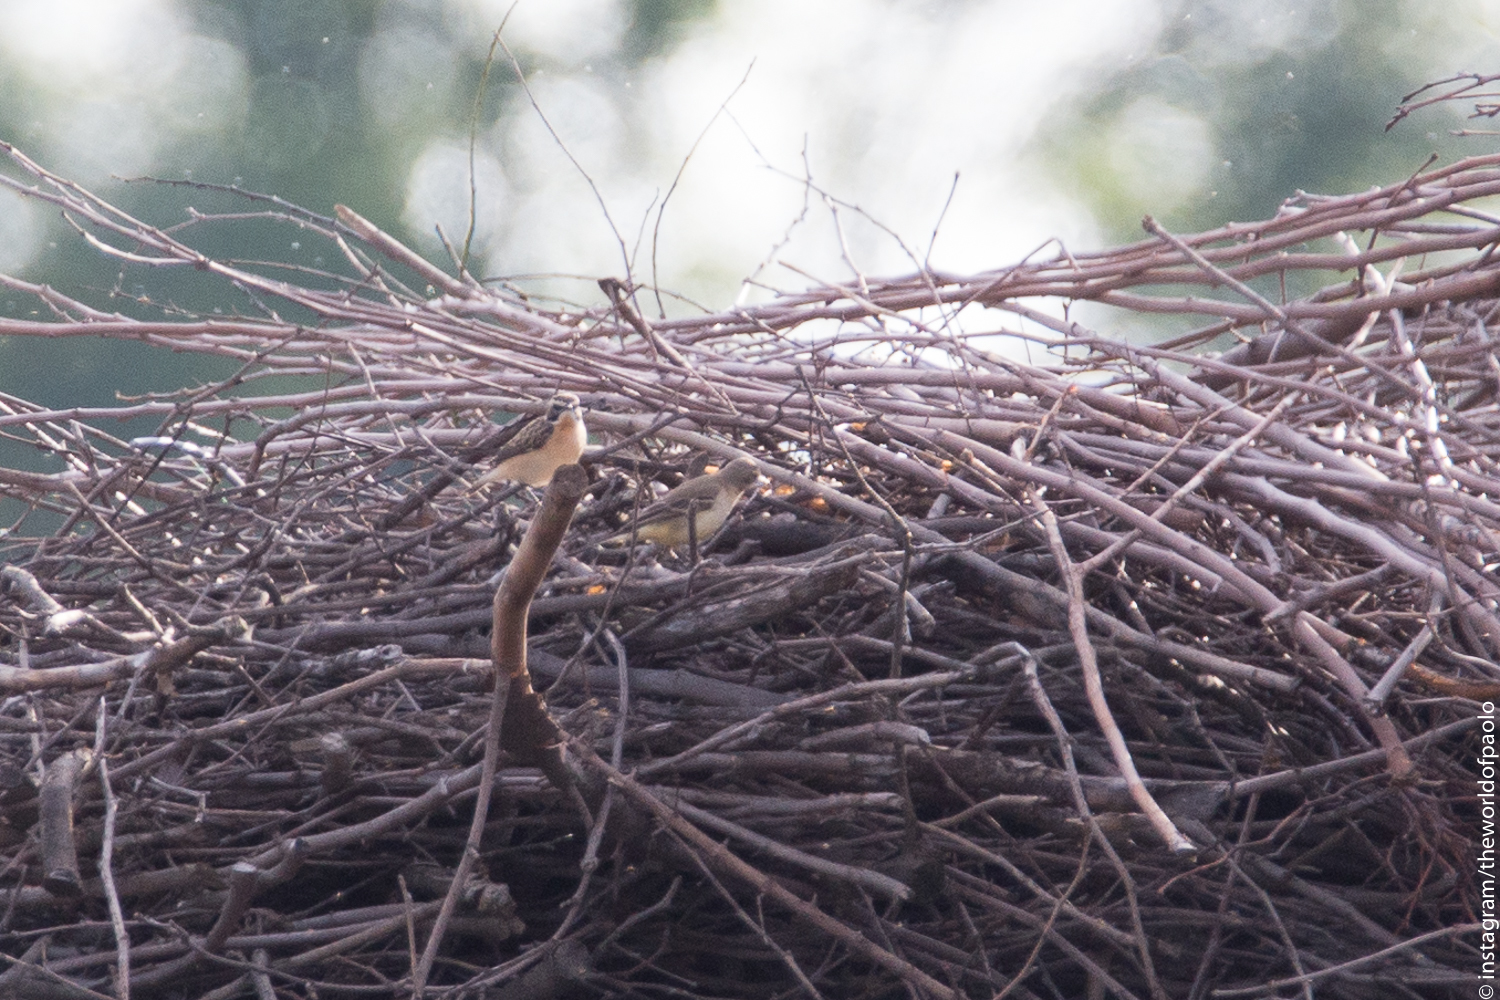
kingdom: Animalia
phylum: Chordata
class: Aves
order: Passeriformes
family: Muscicapidae
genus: Saxicola
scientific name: Saxicola rubetra
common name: Whinchat
